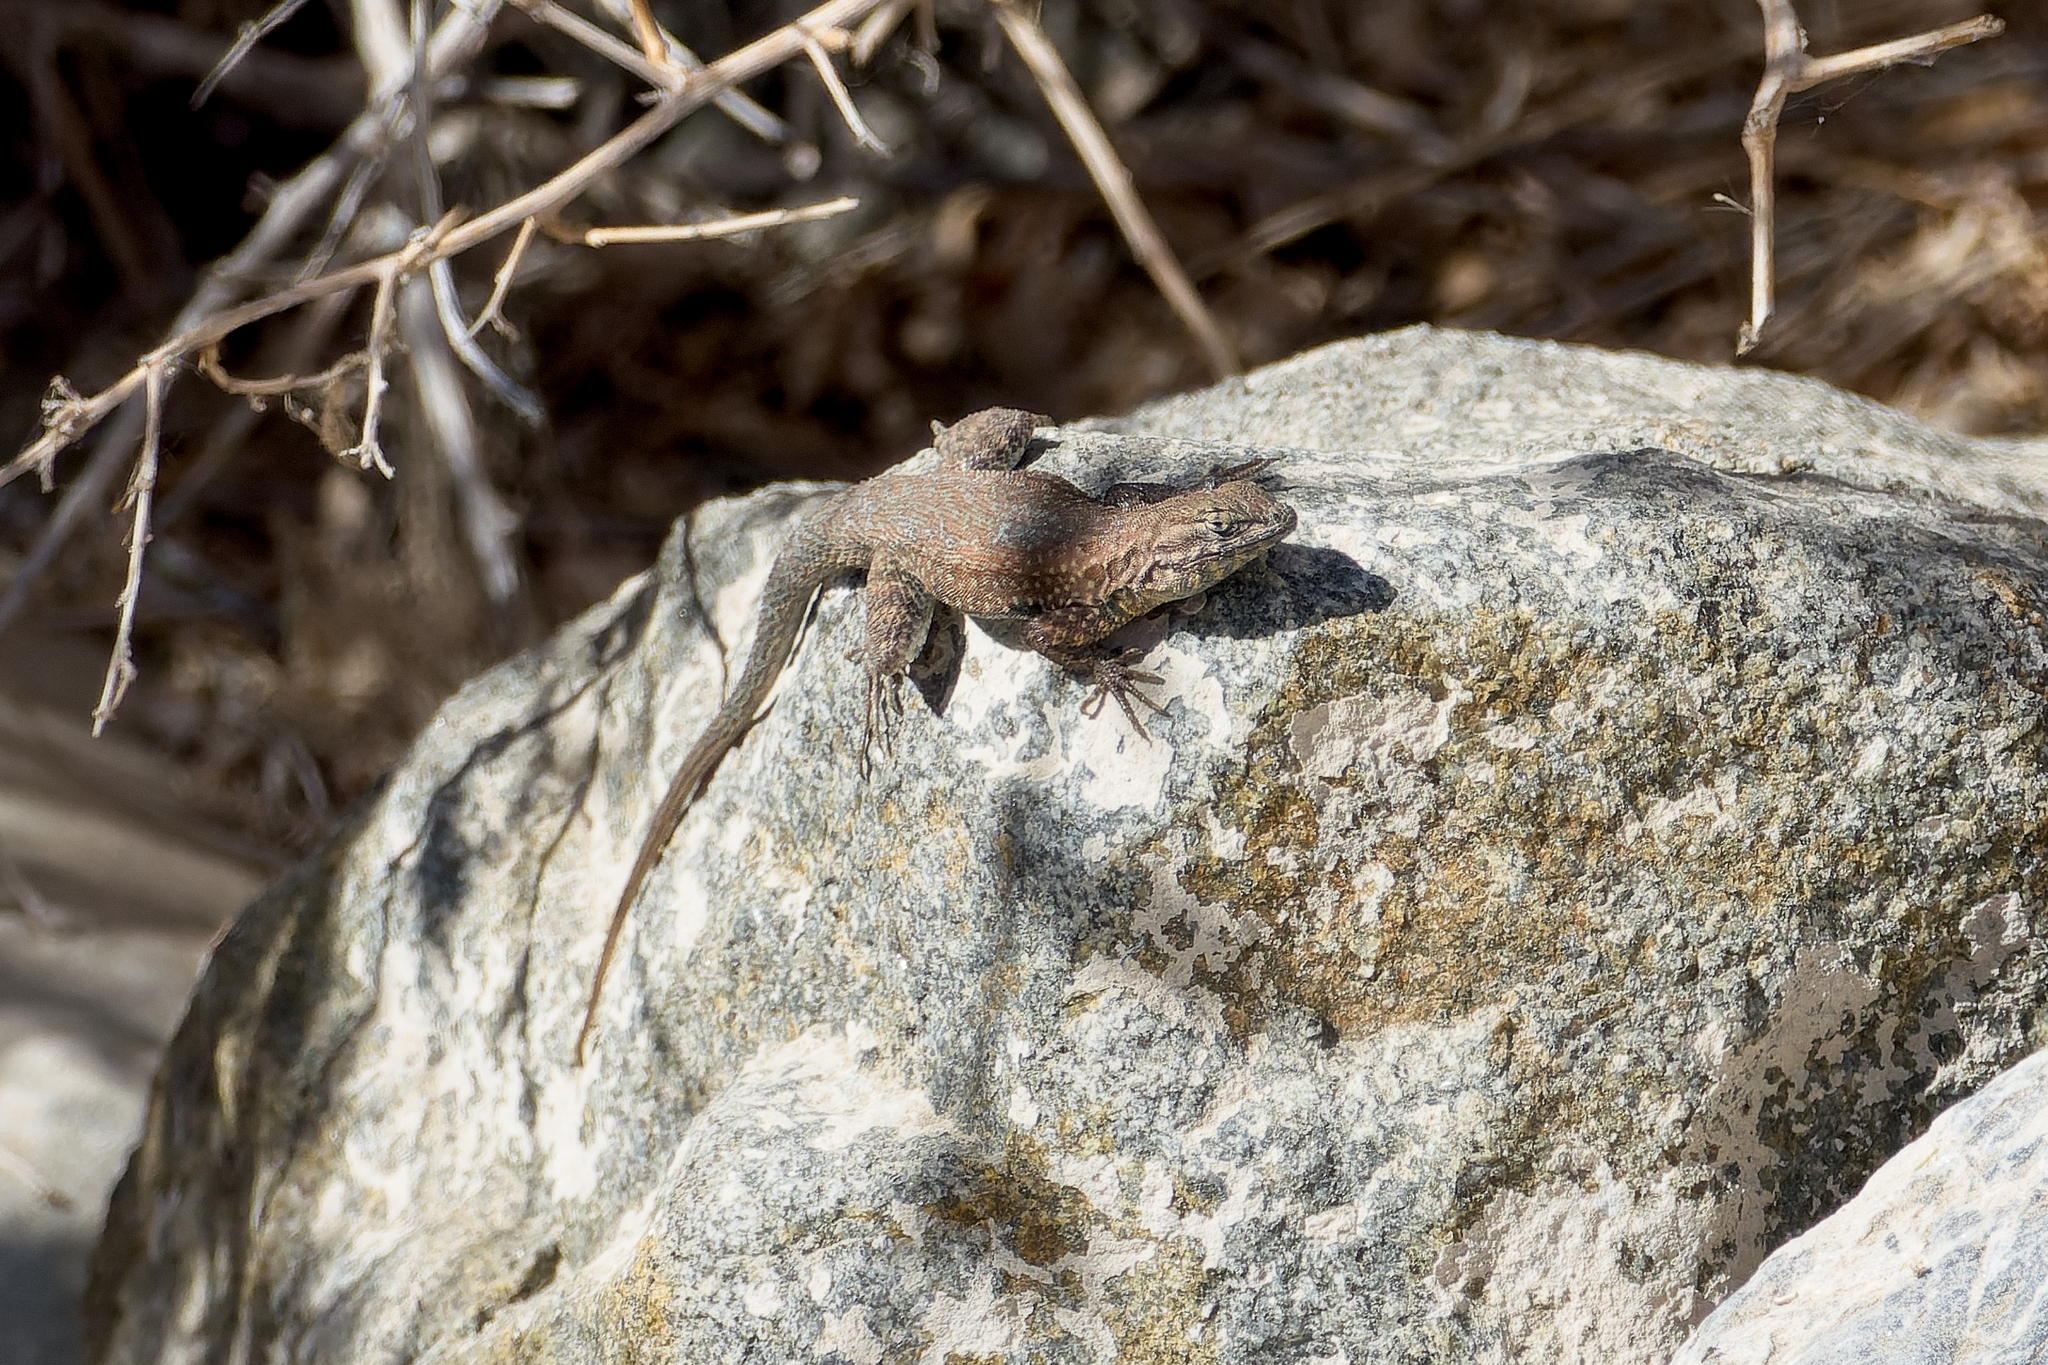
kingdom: Animalia
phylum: Chordata
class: Squamata
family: Phrynosomatidae
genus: Uta
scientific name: Uta stansburiana
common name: Side-blotched lizard
